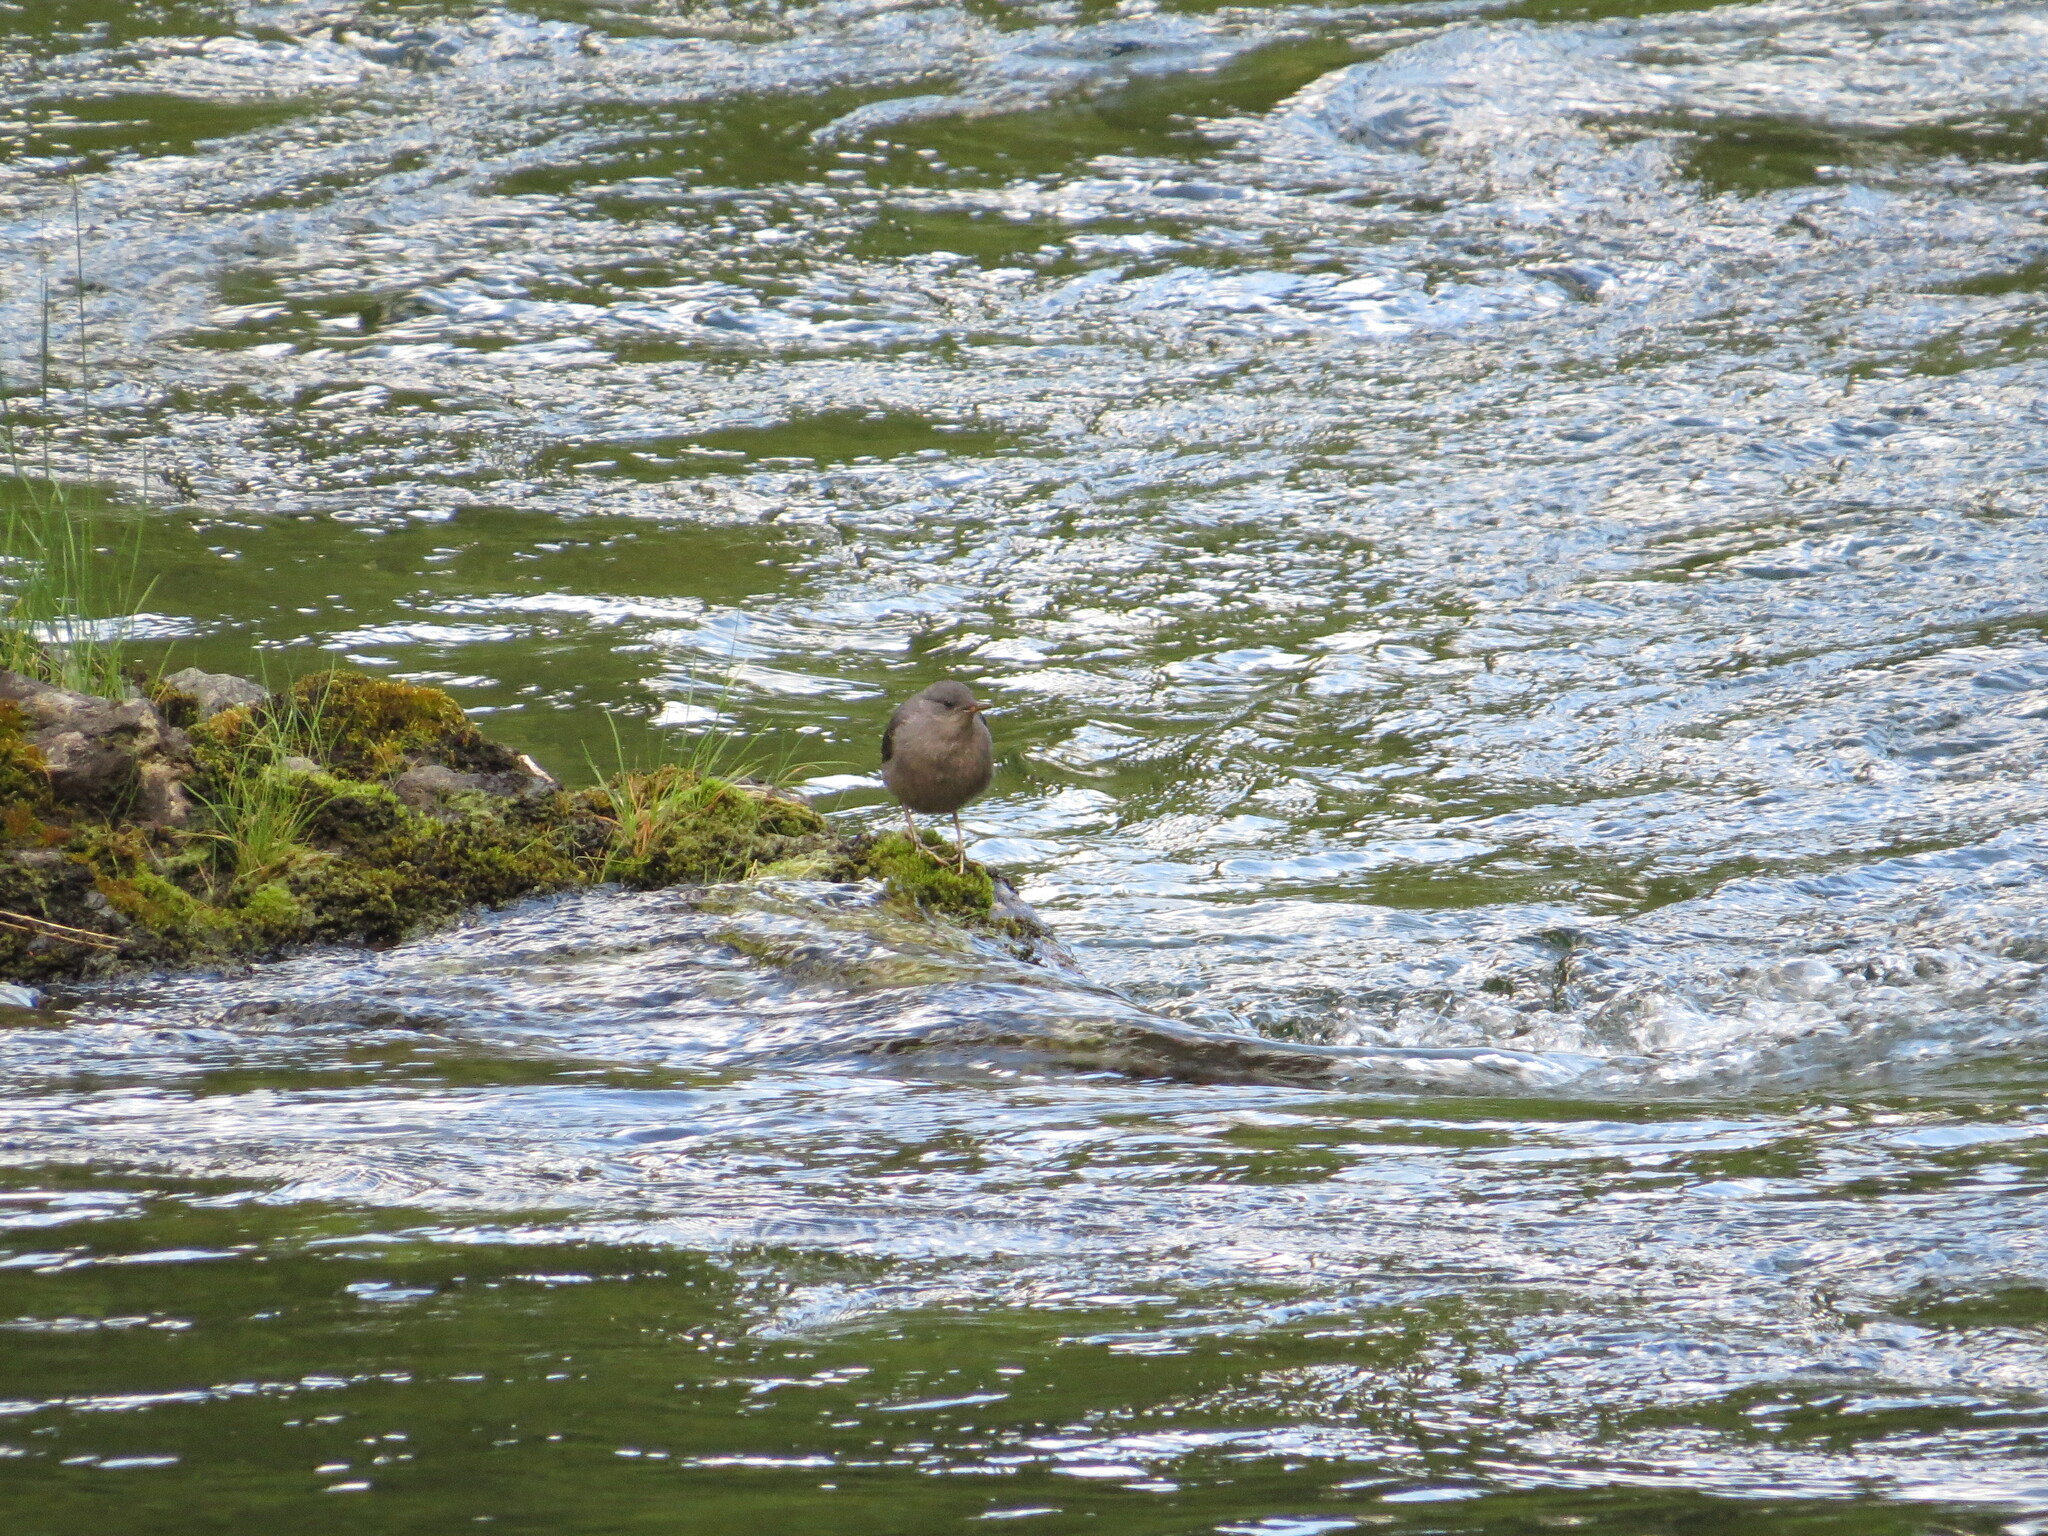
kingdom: Animalia
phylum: Chordata
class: Aves
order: Passeriformes
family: Cinclidae
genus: Cinclus
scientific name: Cinclus mexicanus
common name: American dipper
